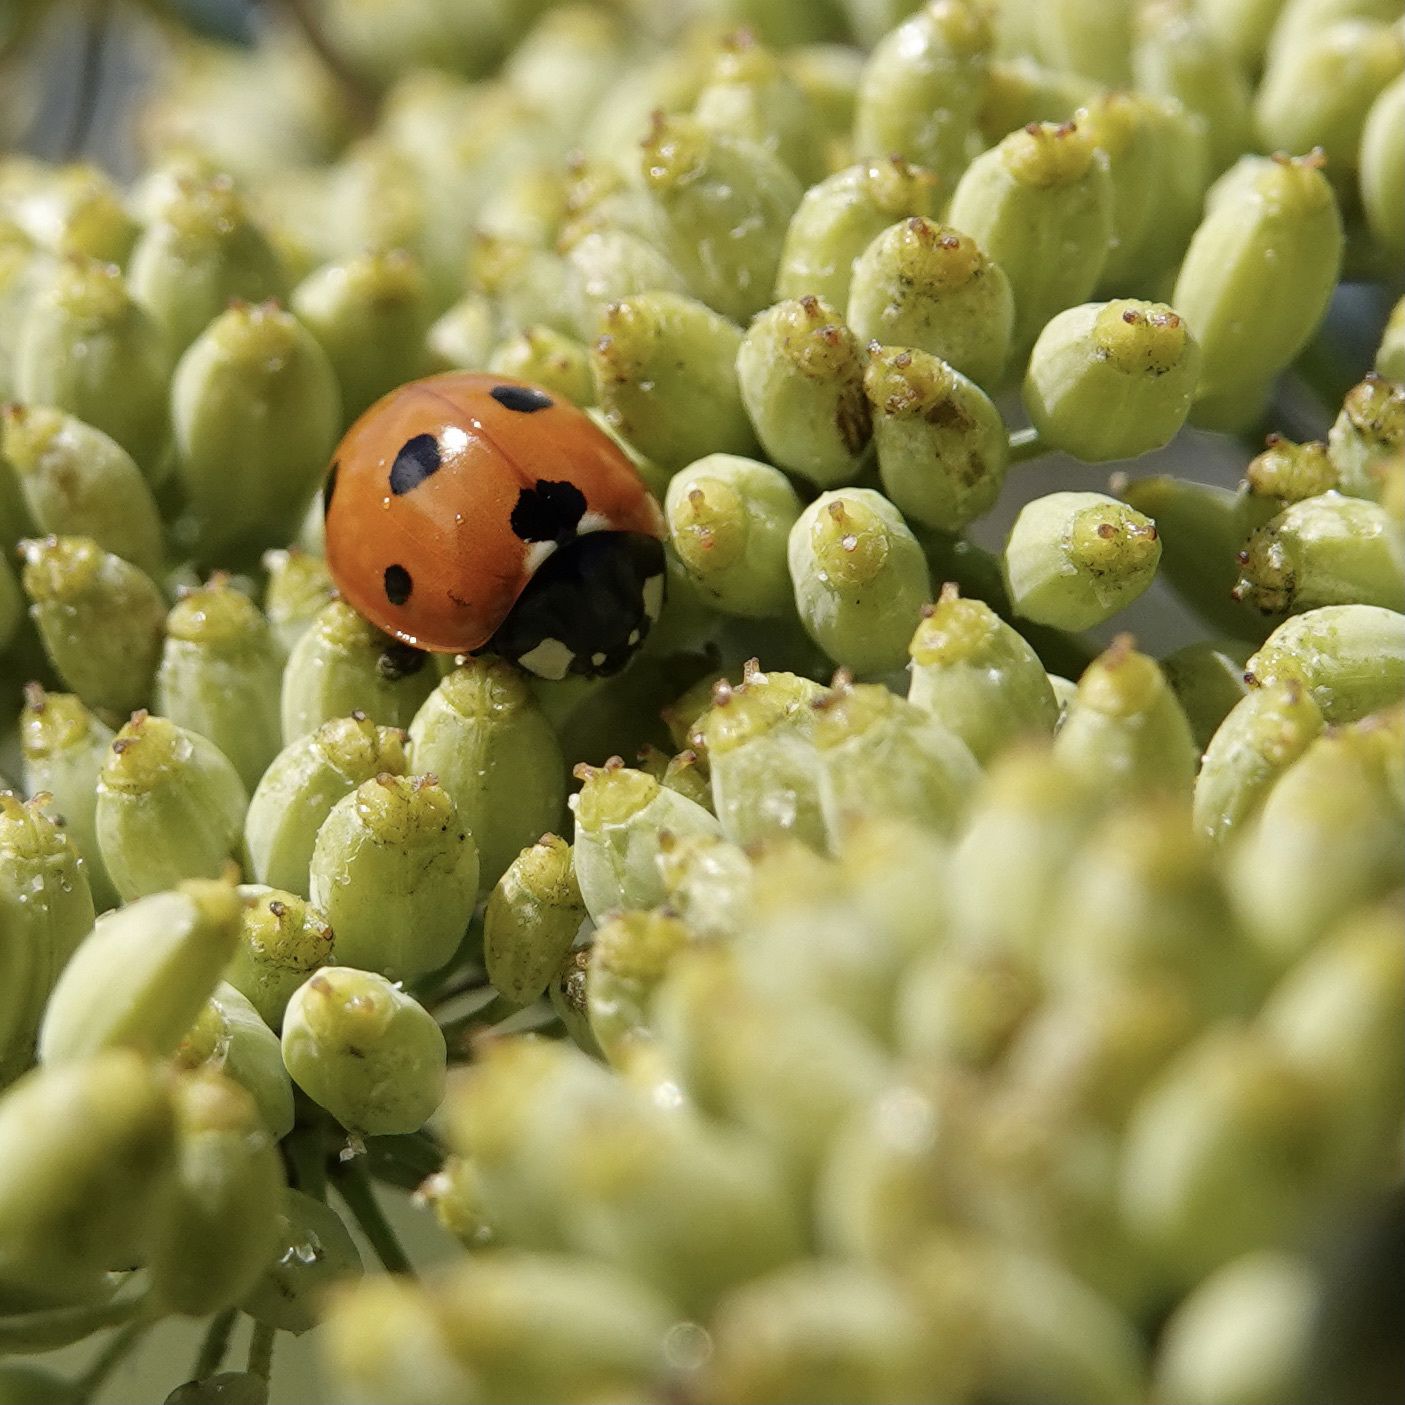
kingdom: Animalia
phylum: Arthropoda
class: Insecta
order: Coleoptera
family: Coccinellidae
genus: Coccinella
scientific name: Coccinella septempunctata
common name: Sevenspotted lady beetle
